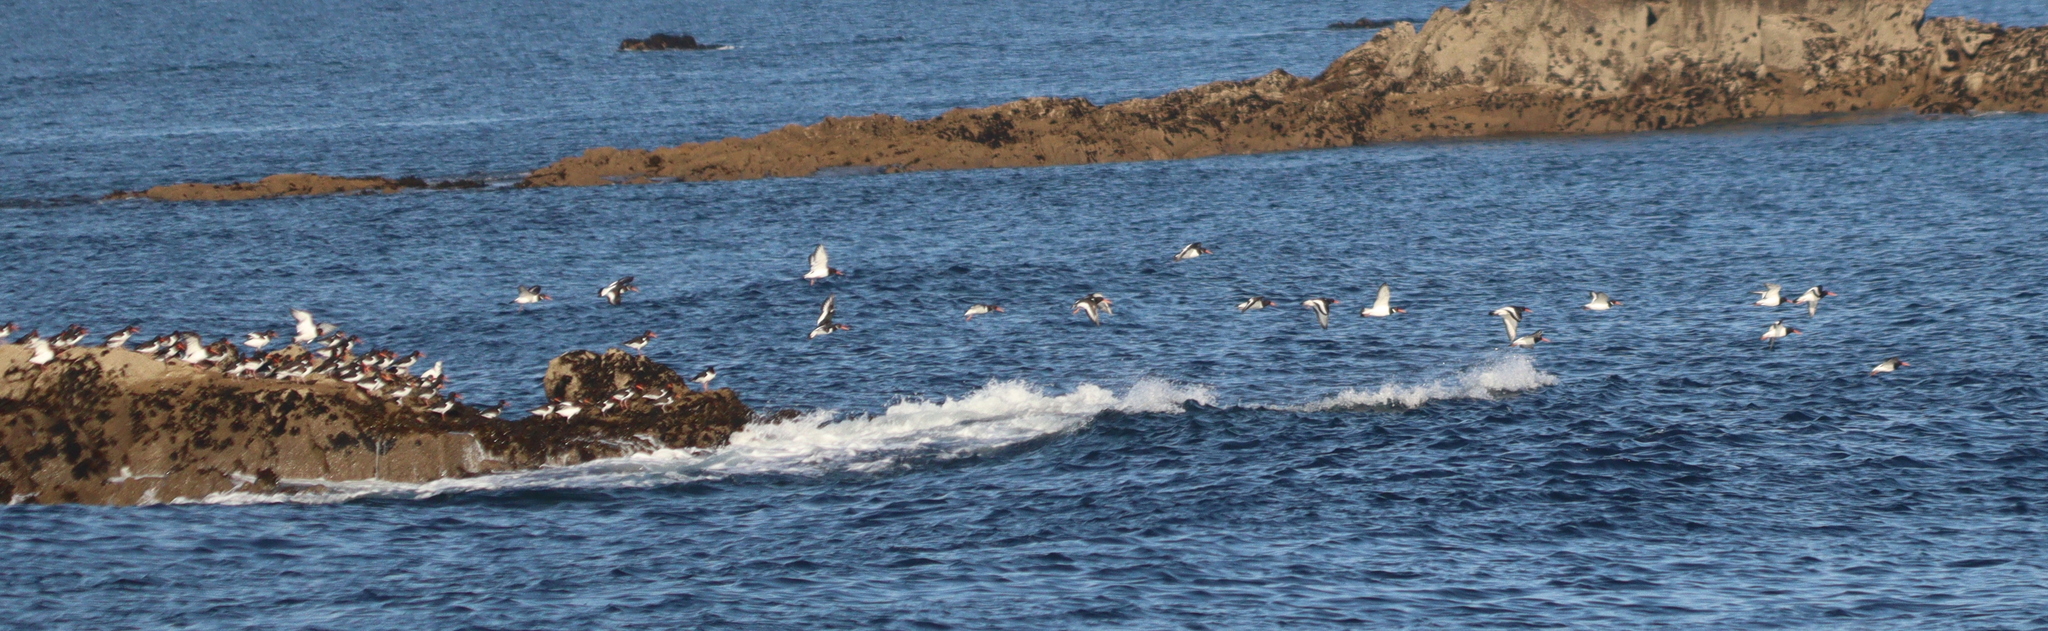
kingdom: Animalia
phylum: Chordata
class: Aves
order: Charadriiformes
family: Haematopodidae
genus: Haematopus
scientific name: Haematopus ostralegus
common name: Eurasian oystercatcher
